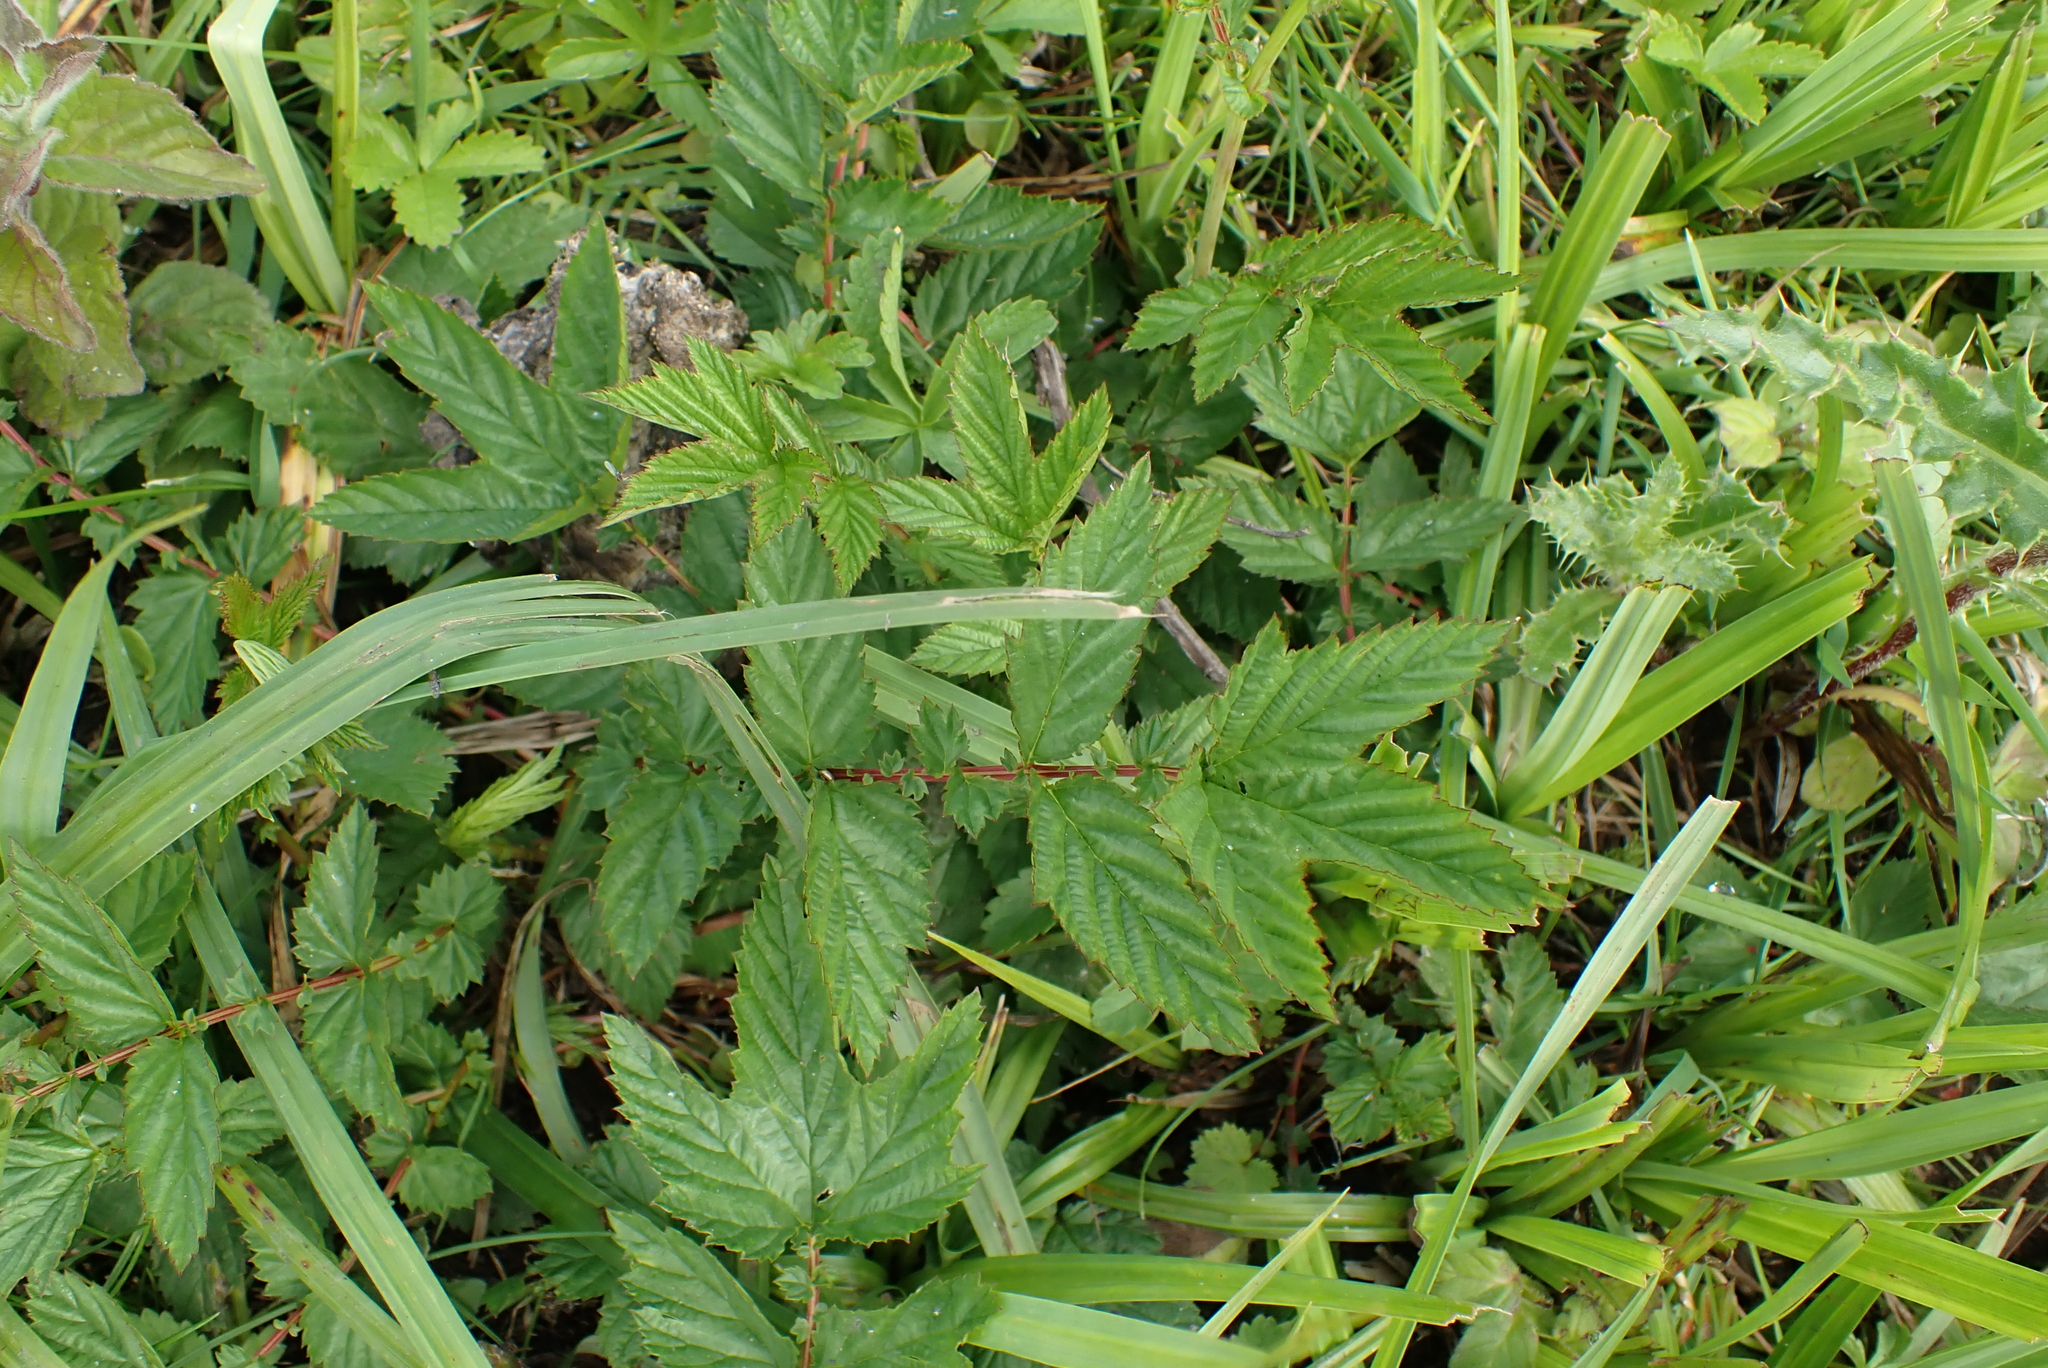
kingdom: Plantae
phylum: Tracheophyta
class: Magnoliopsida
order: Rosales
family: Rosaceae
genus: Filipendula
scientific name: Filipendula ulmaria
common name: Meadowsweet
